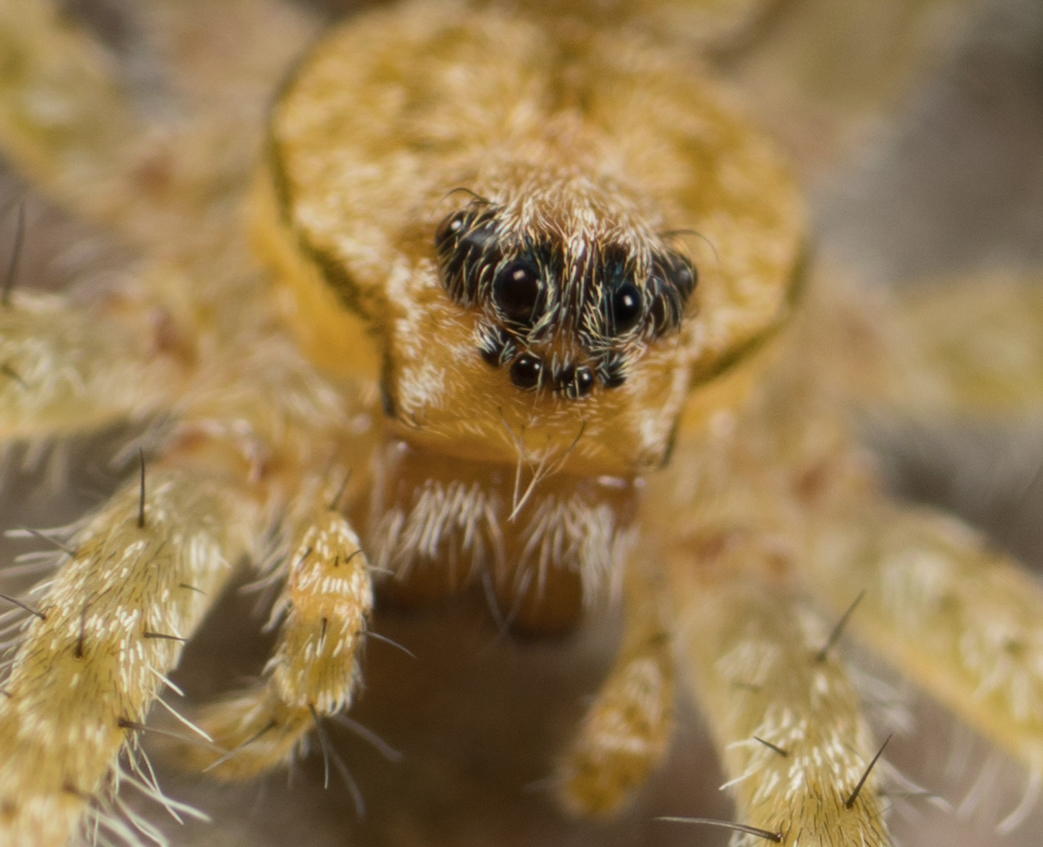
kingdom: Animalia
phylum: Arthropoda
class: Arachnida
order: Araneae
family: Pisauridae
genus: Dolomedes
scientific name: Dolomedes albineus
